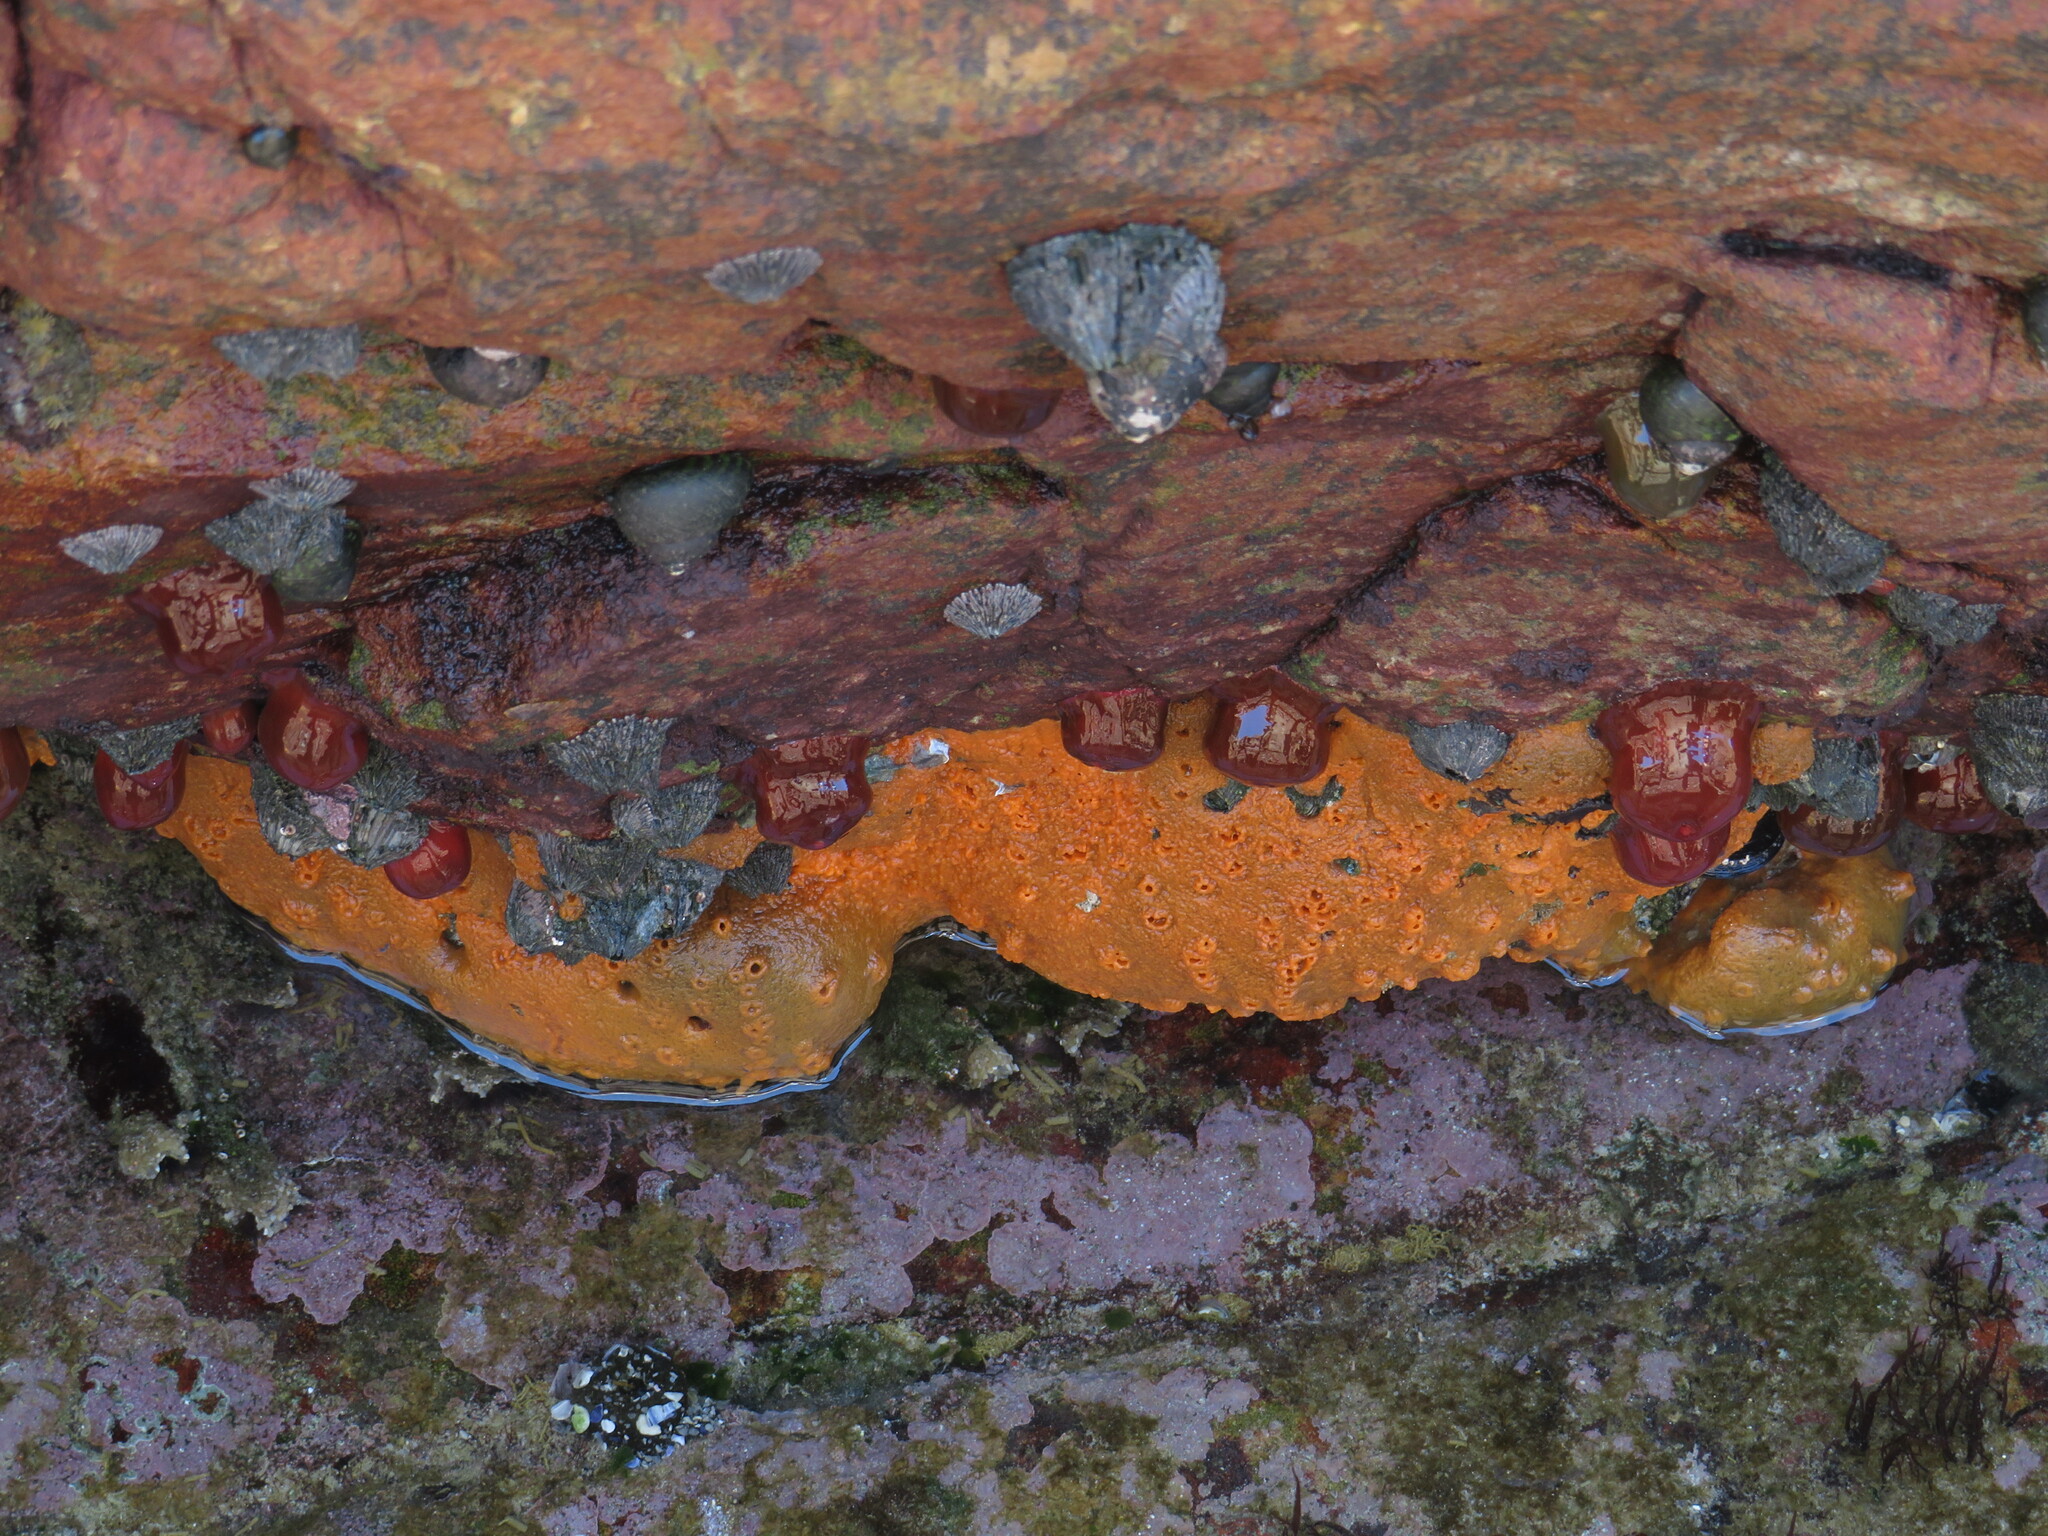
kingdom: Animalia
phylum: Cnidaria
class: Anthozoa
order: Actiniaria
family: Actiniidae
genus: Actinia
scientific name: Actinia ebhayiensis
